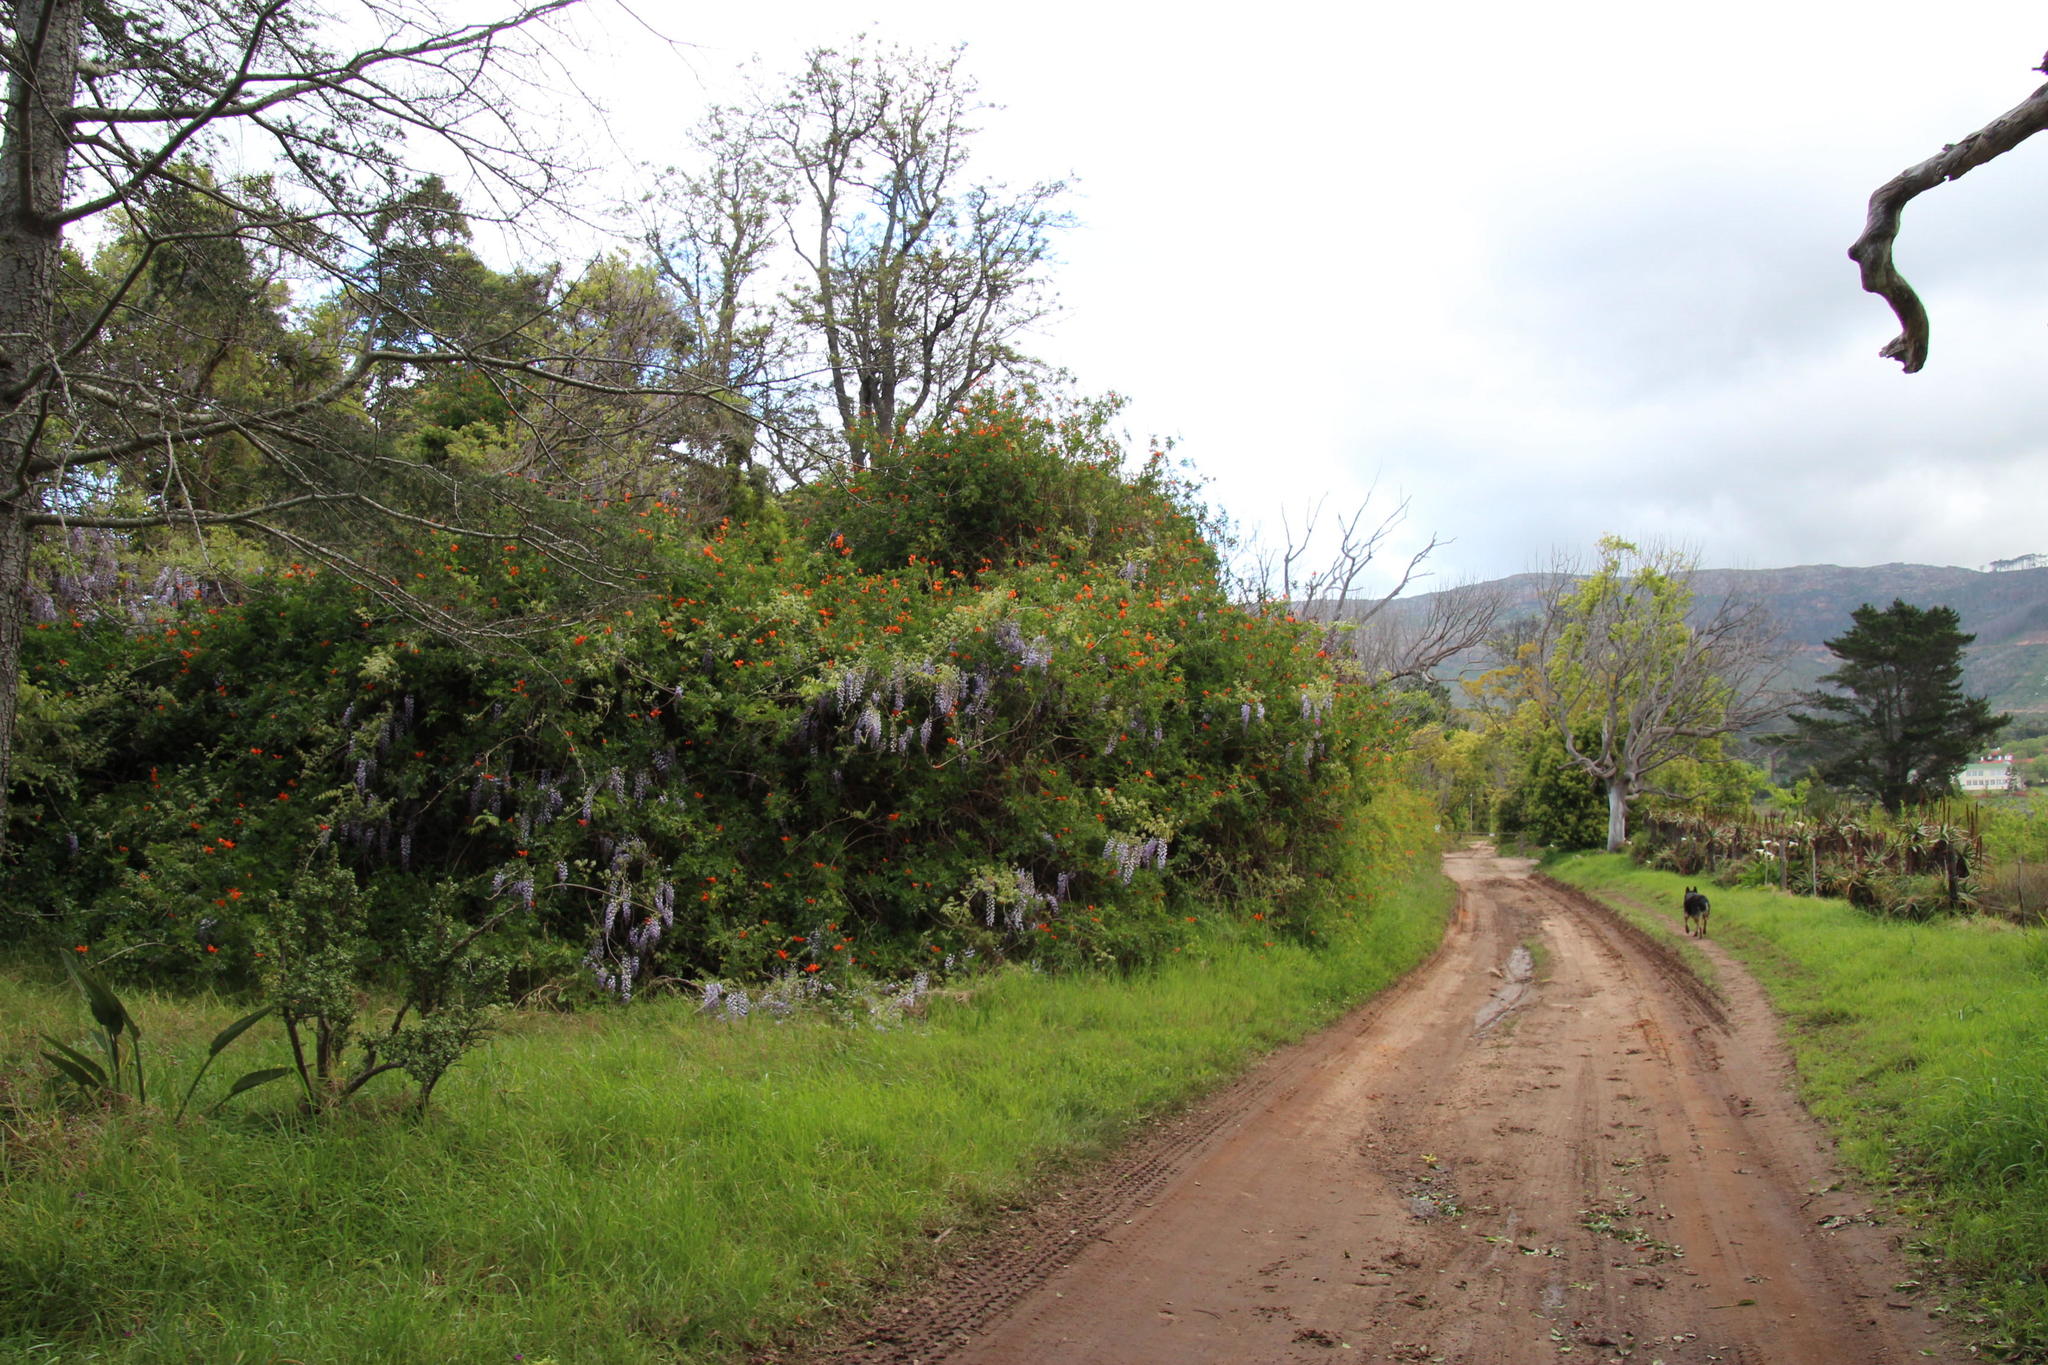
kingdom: Plantae
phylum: Tracheophyta
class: Magnoliopsida
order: Fabales
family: Fabaceae
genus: Wisteria
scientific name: Wisteria sinensis
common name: Chinese wisteria
